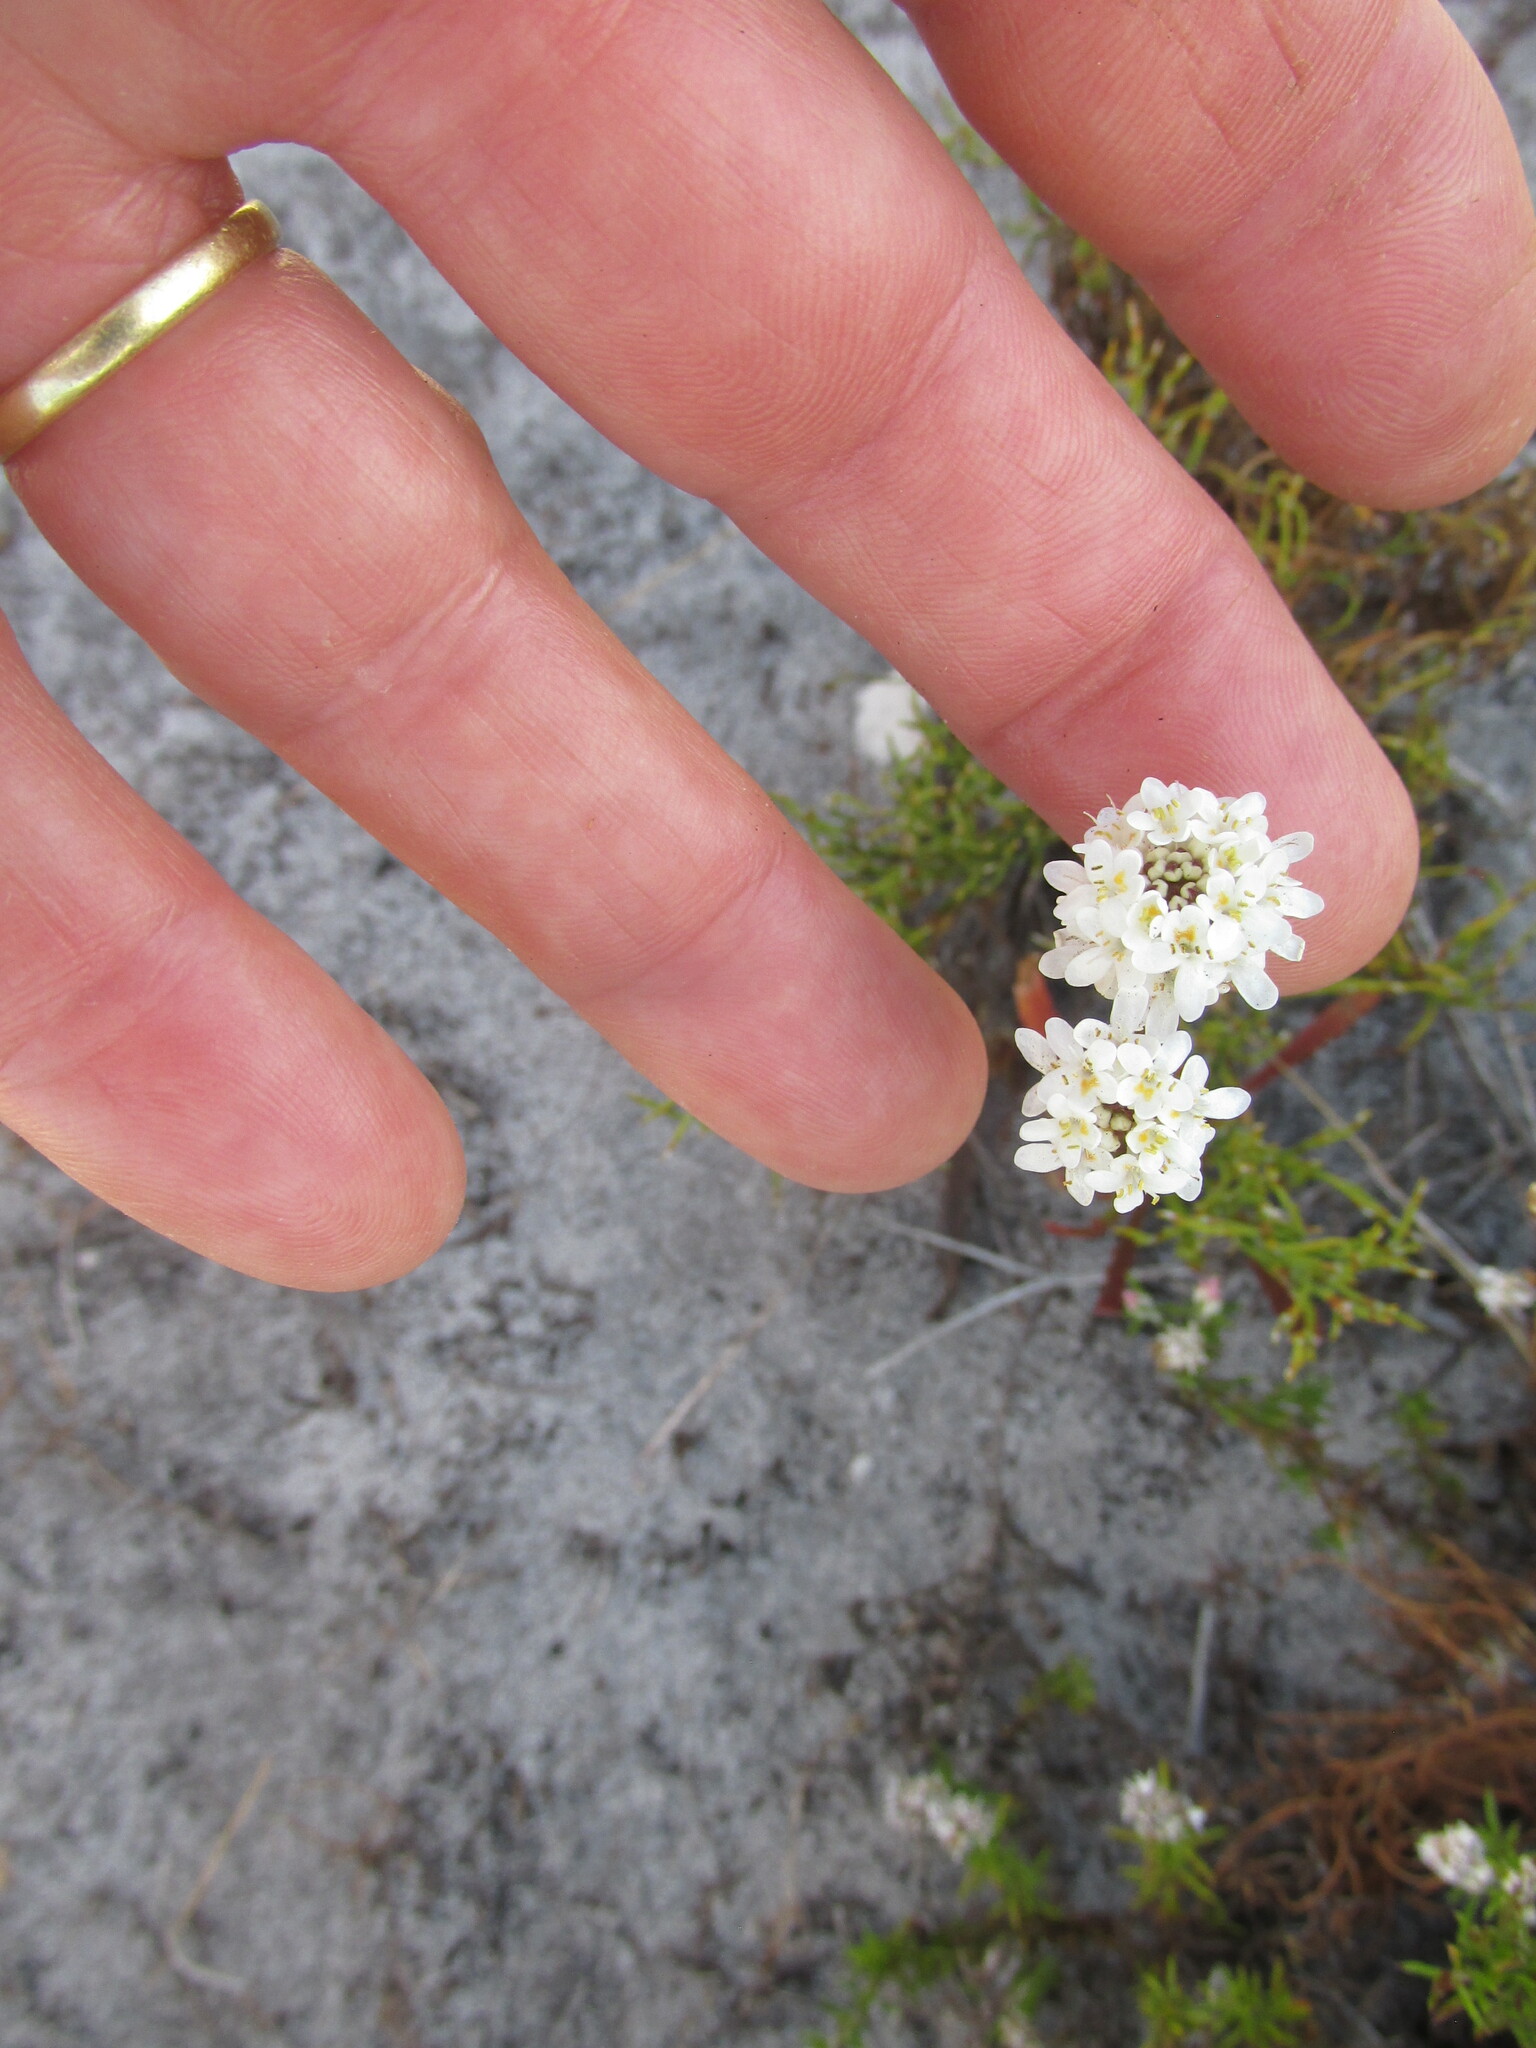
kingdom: Plantae
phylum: Tracheophyta
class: Magnoliopsida
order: Lamiales
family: Scrophulariaceae
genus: Pseudoselago
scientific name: Pseudoselago gracilis
